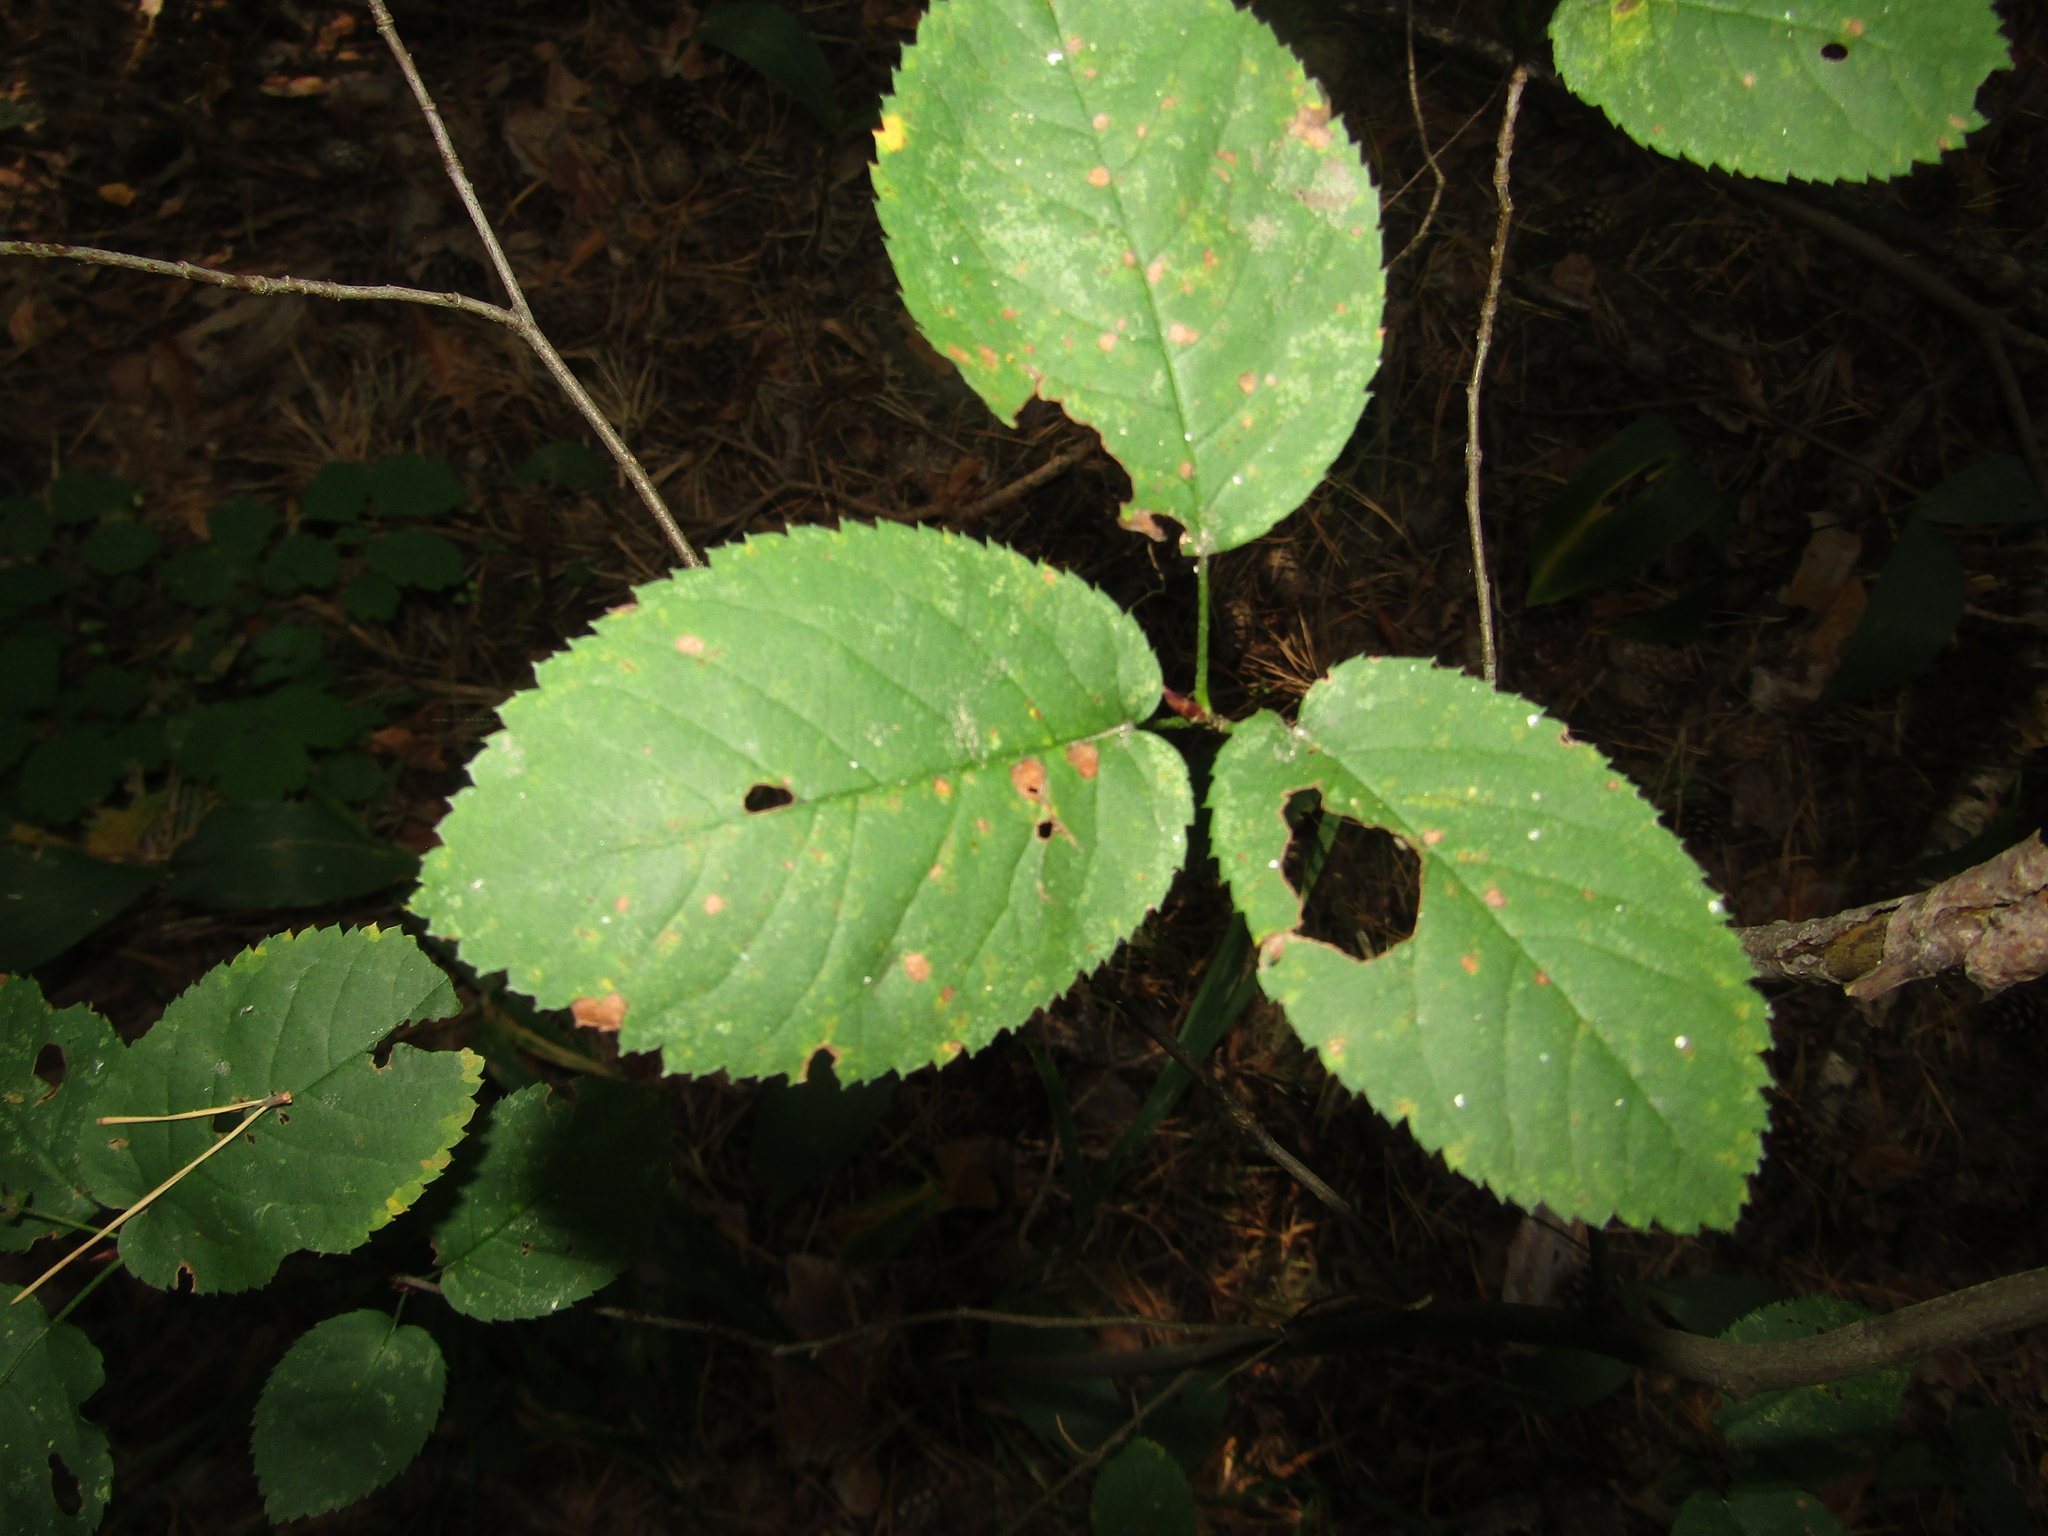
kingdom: Plantae
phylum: Tracheophyta
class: Magnoliopsida
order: Rosales
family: Rosaceae
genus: Amelanchier
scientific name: Amelanchier
